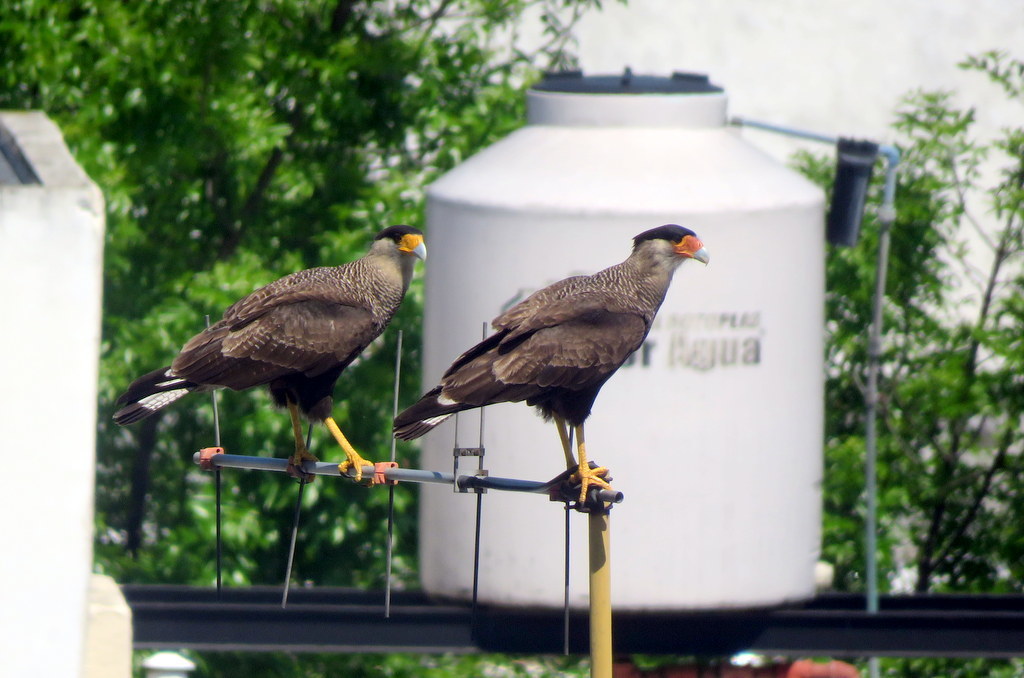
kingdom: Animalia
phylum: Chordata
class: Aves
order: Falconiformes
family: Falconidae
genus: Caracara
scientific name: Caracara plancus
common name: Southern caracara
